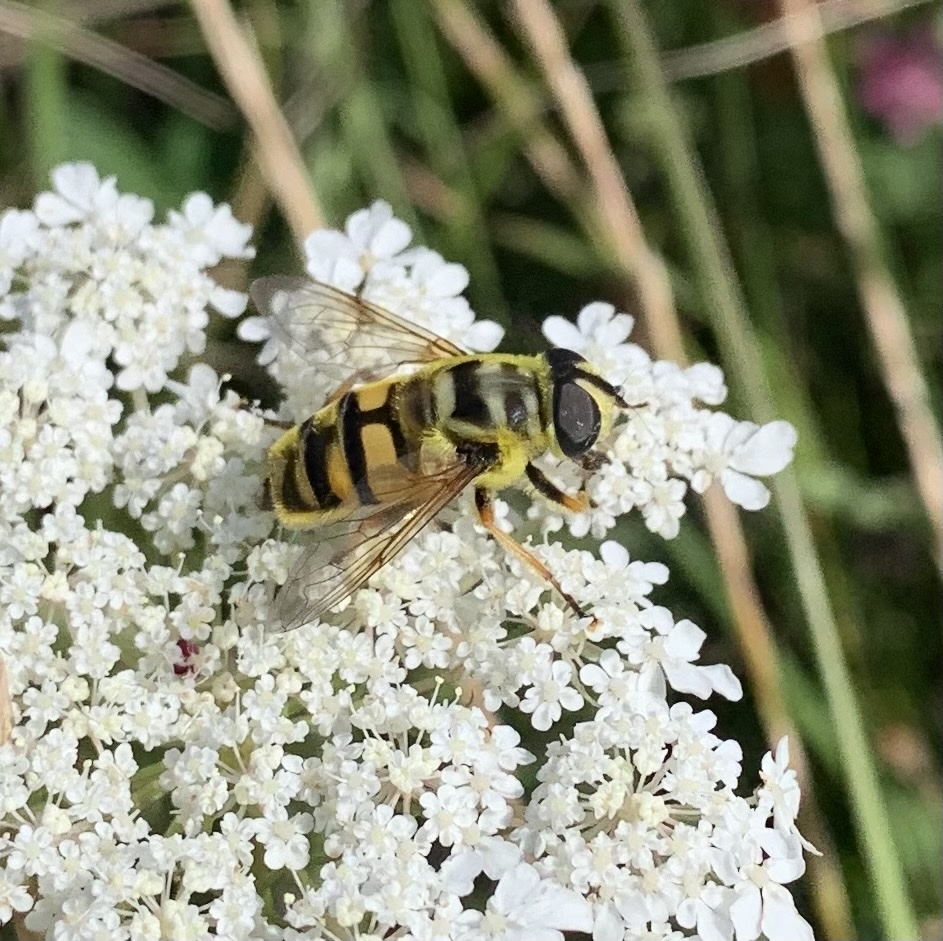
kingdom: Animalia
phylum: Arthropoda
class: Insecta
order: Diptera
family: Syrphidae
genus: Myathropa
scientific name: Myathropa florea
